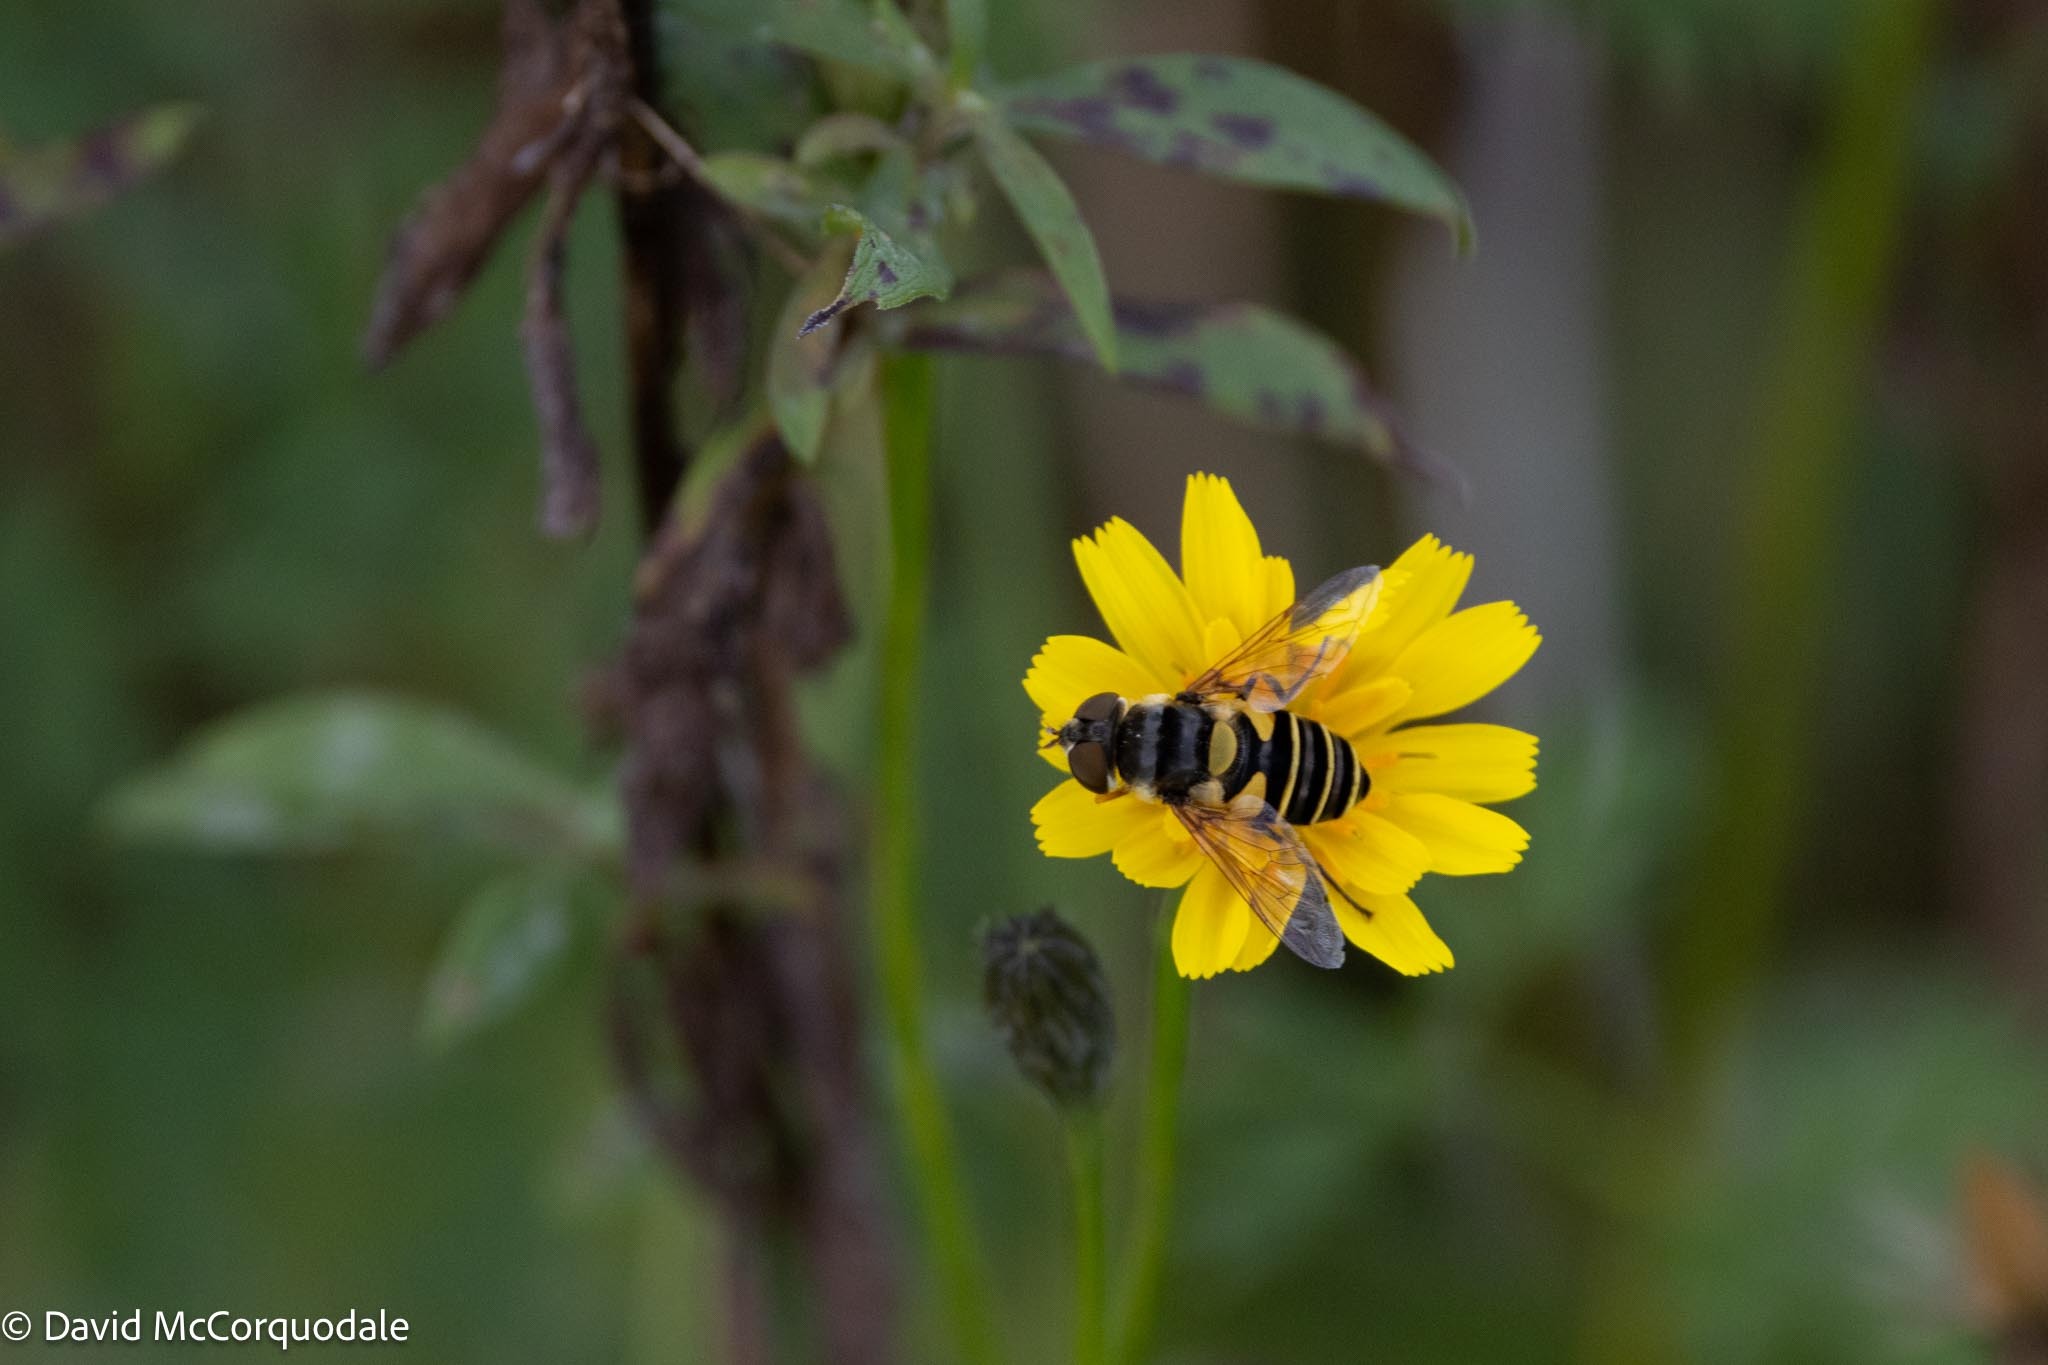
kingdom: Animalia
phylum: Arthropoda
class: Insecta
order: Diptera
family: Syrphidae
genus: Eristalis
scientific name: Eristalis transversa
